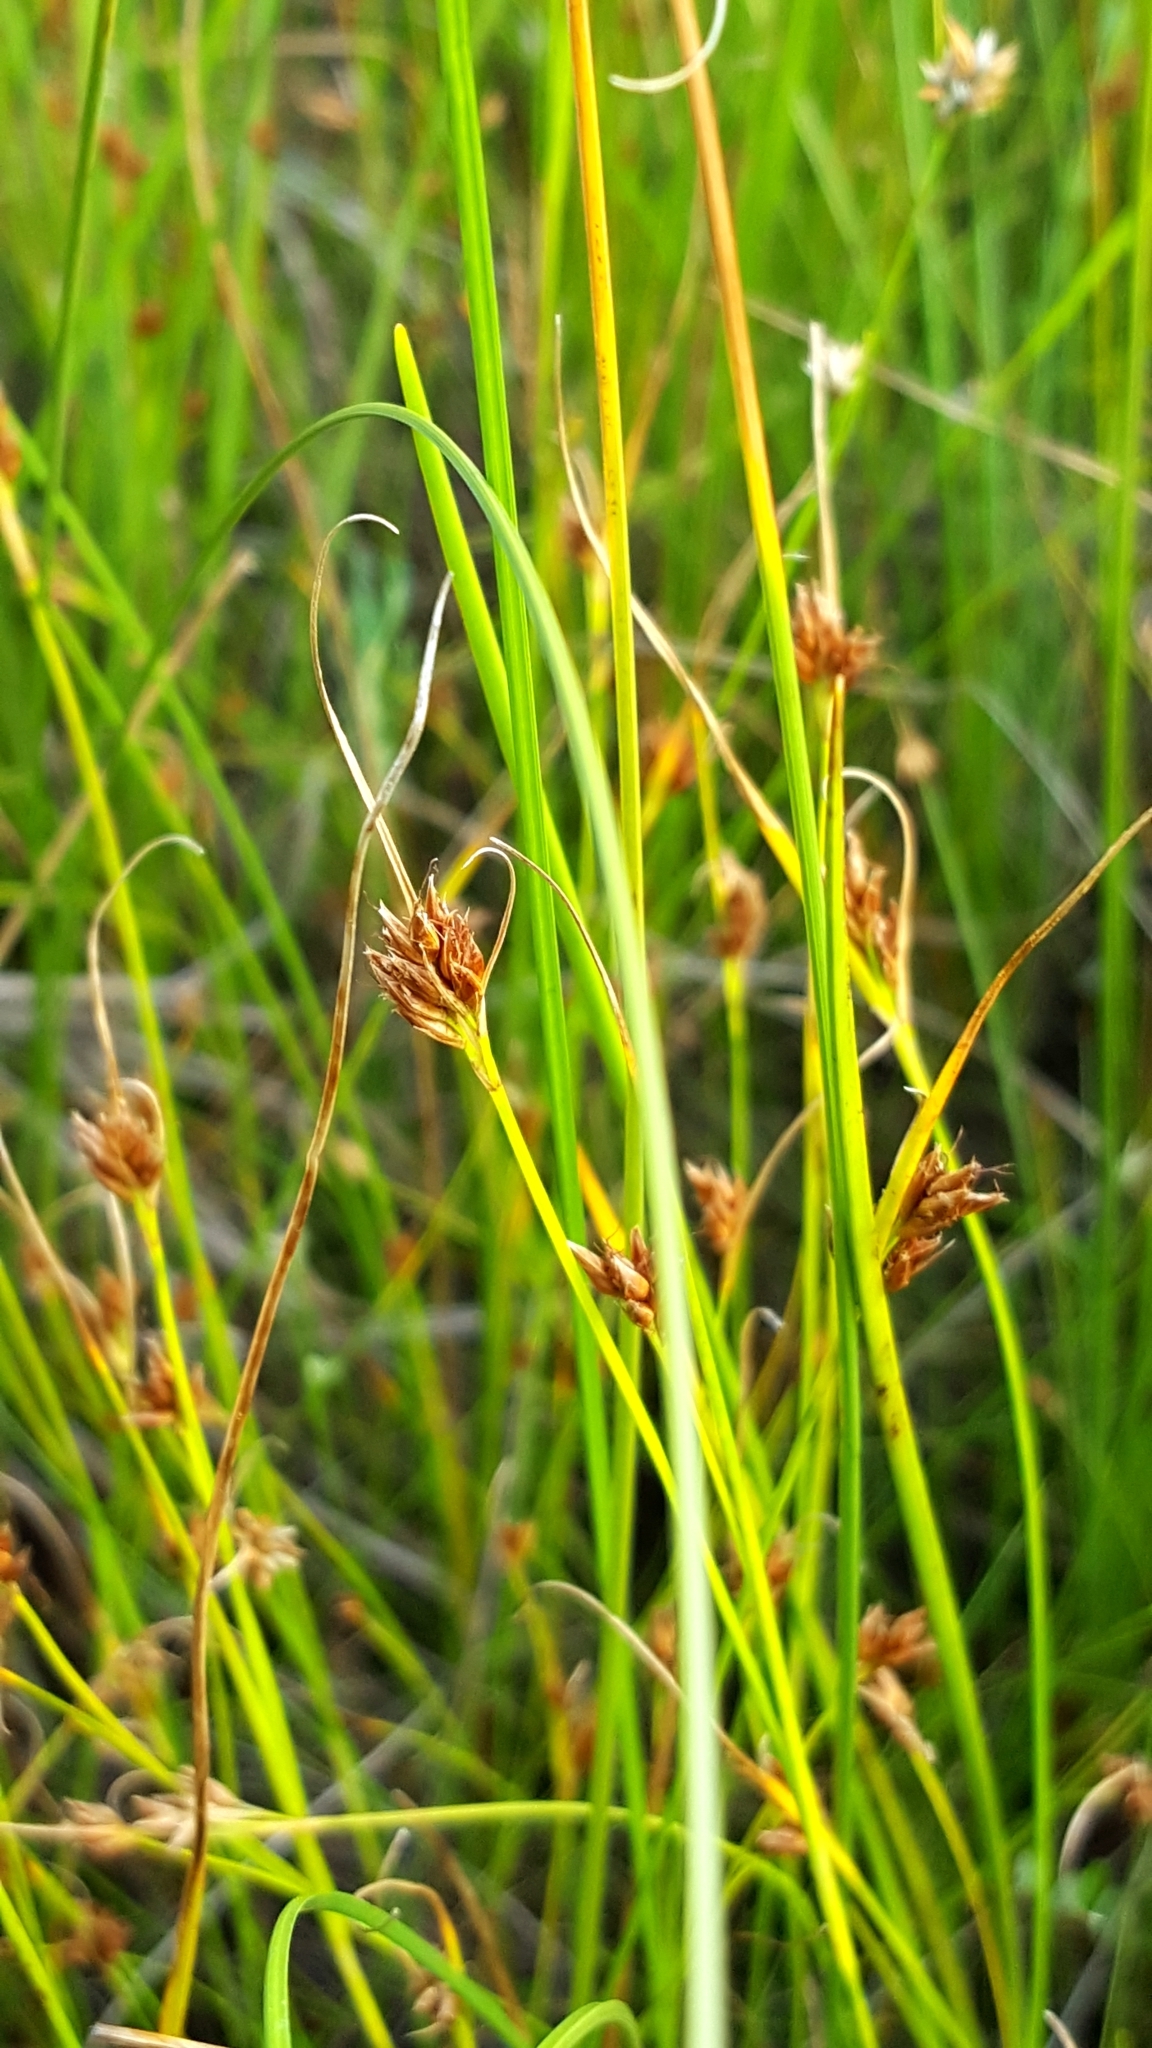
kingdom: Plantae
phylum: Tracheophyta
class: Liliopsida
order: Poales
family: Cyperaceae
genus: Rhynchospora
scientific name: Rhynchospora fusca
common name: Brown beak-sedge
